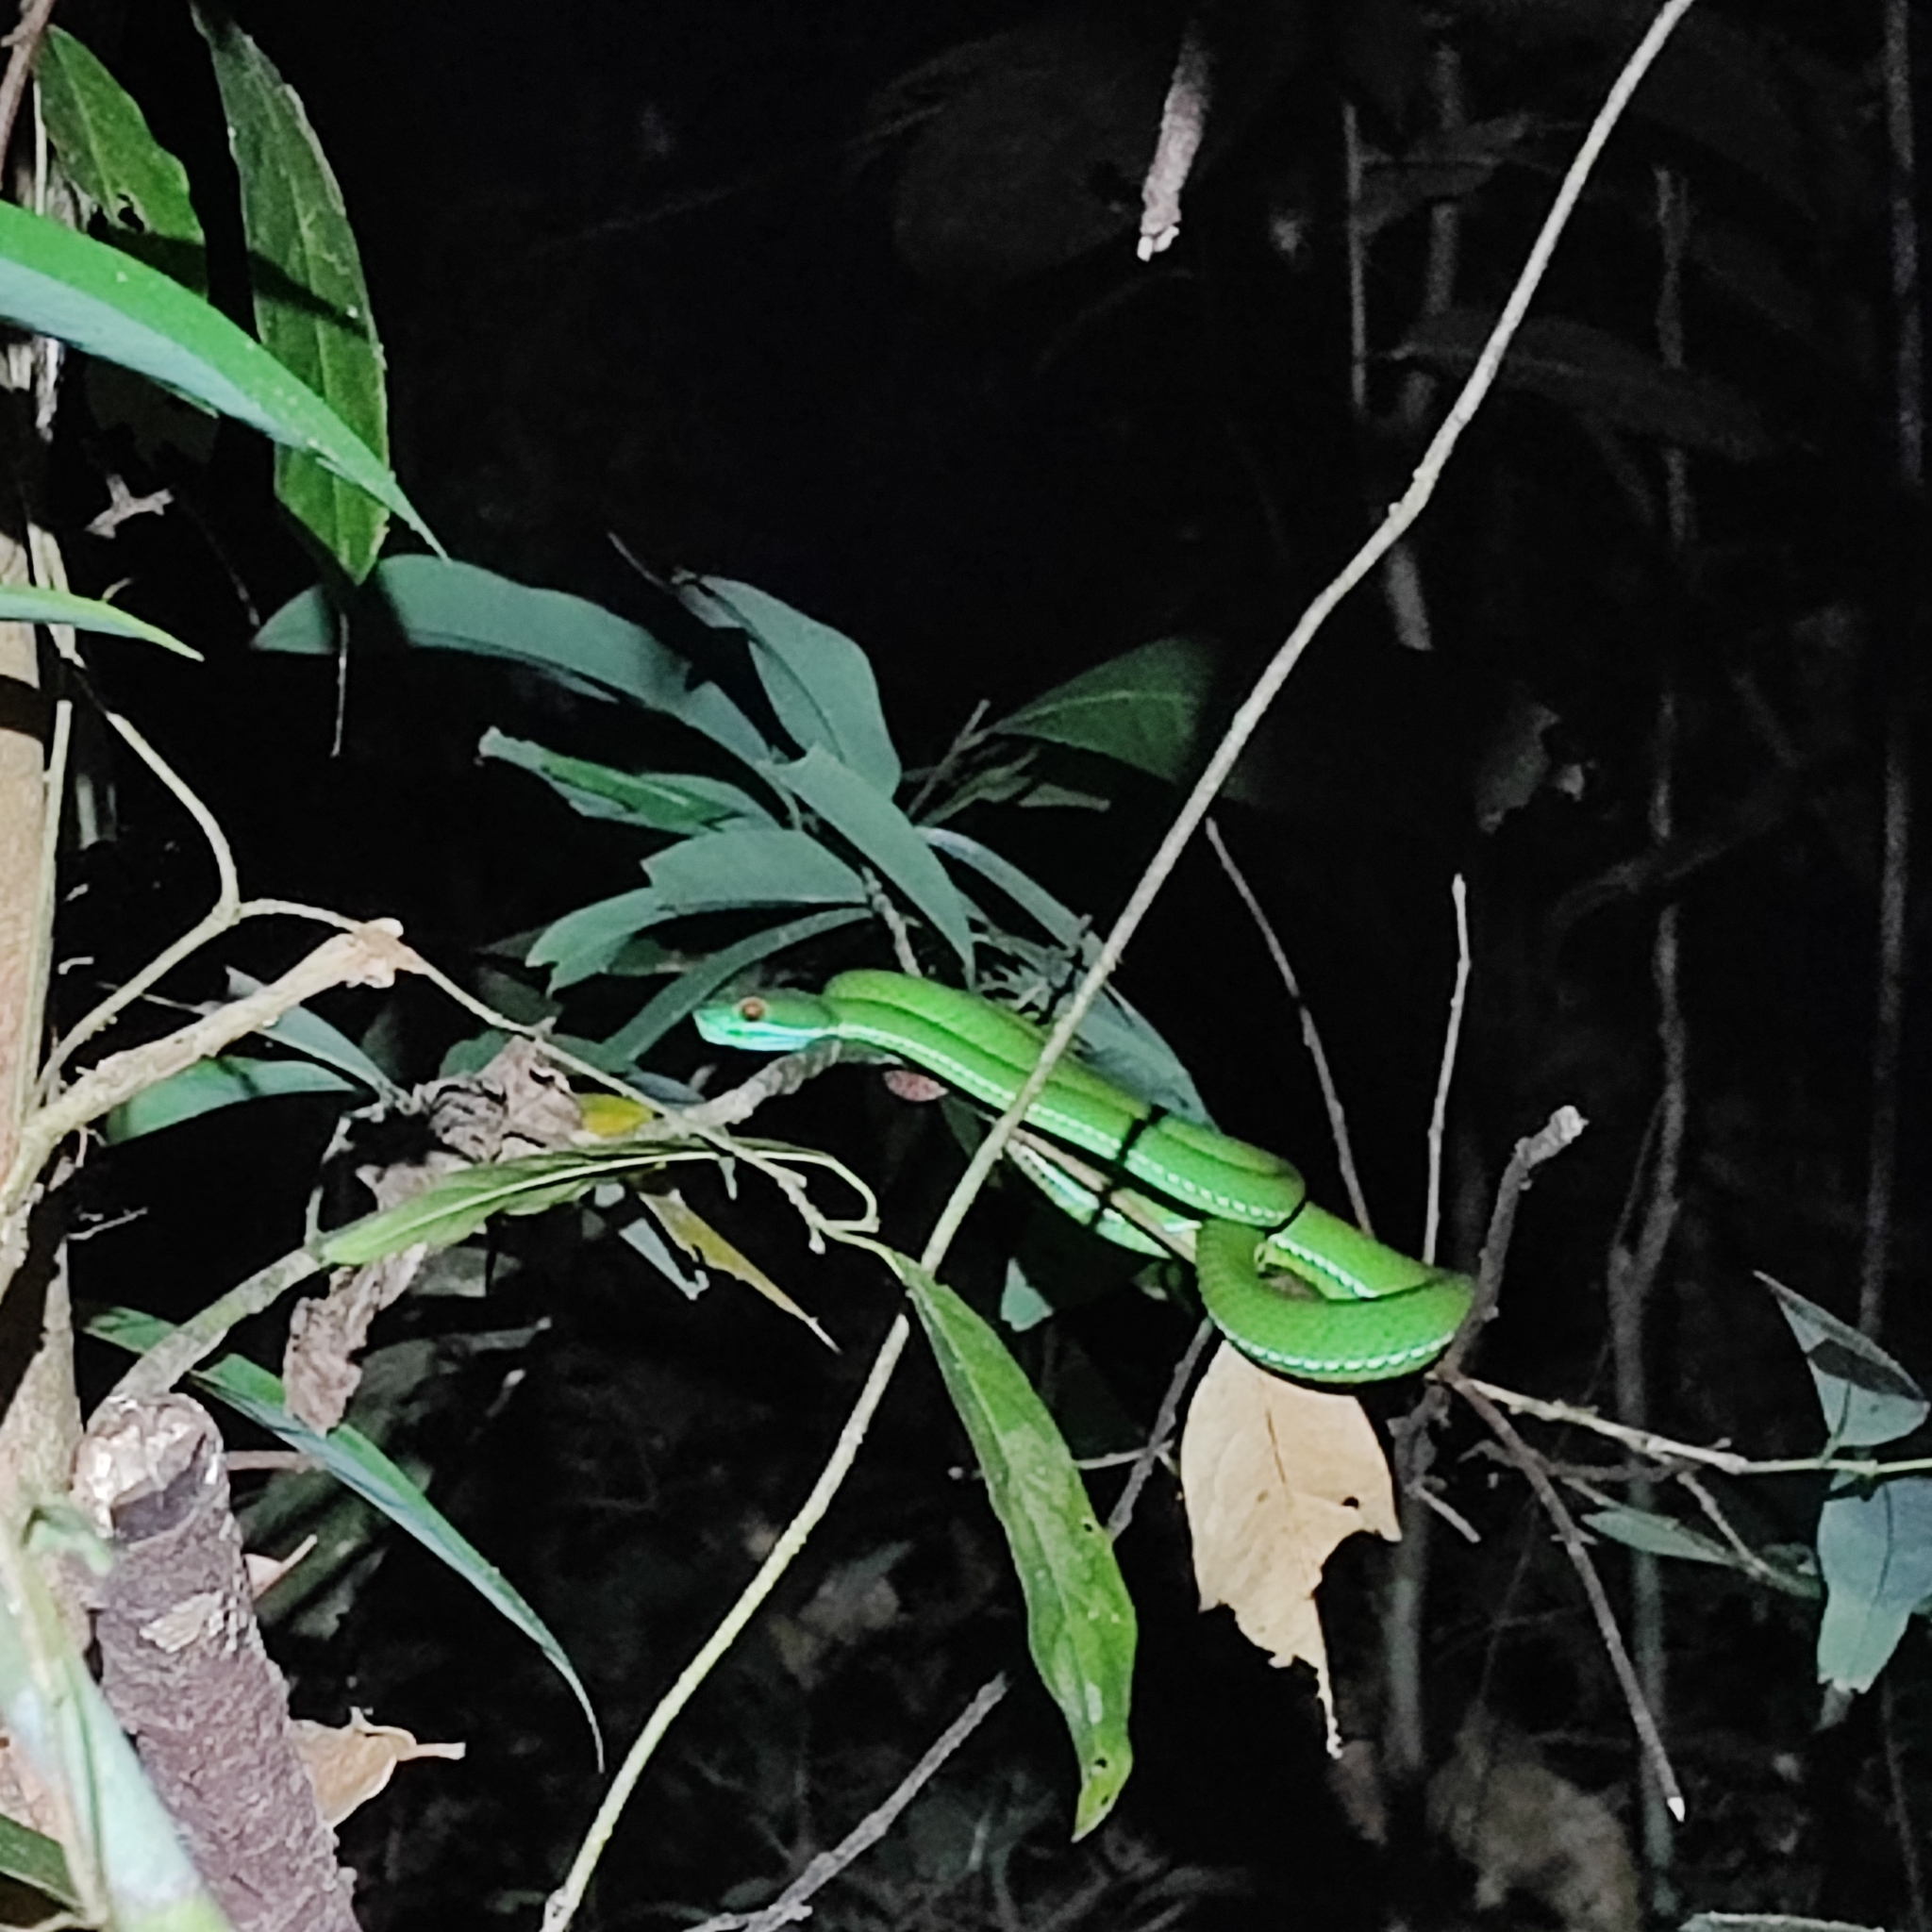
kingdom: Animalia
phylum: Chordata
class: Squamata
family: Viperidae
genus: Craspedocephalus
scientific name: Craspedocephalus rubeus
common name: Ruby-eyed green pitviper
